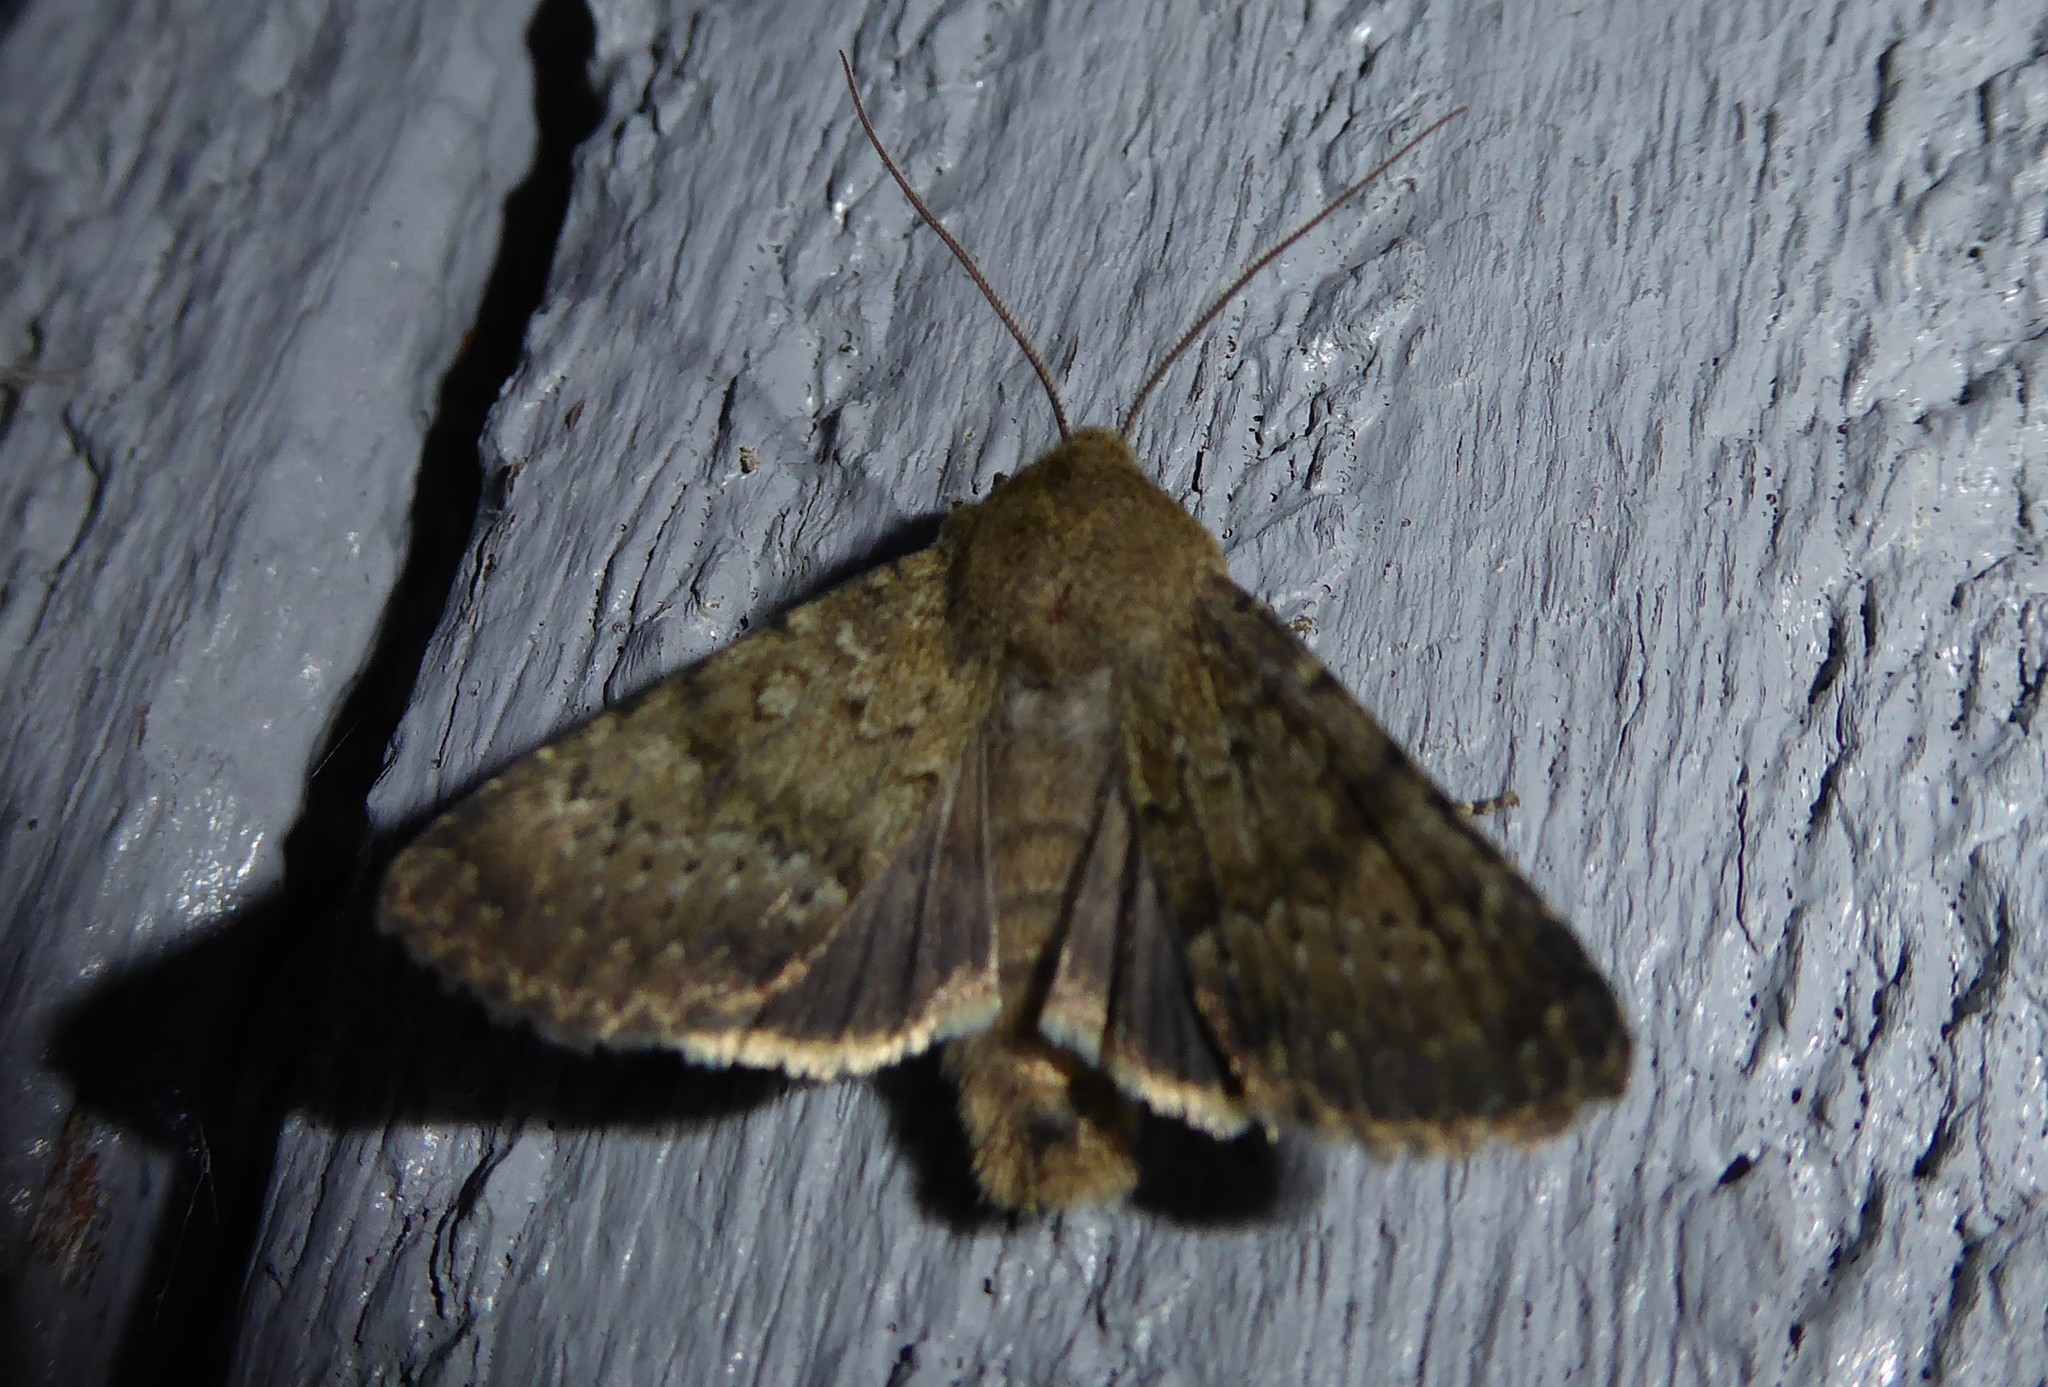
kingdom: Animalia
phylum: Arthropoda
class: Insecta
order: Lepidoptera
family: Noctuidae
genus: Ichneutica
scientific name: Ichneutica moderata
